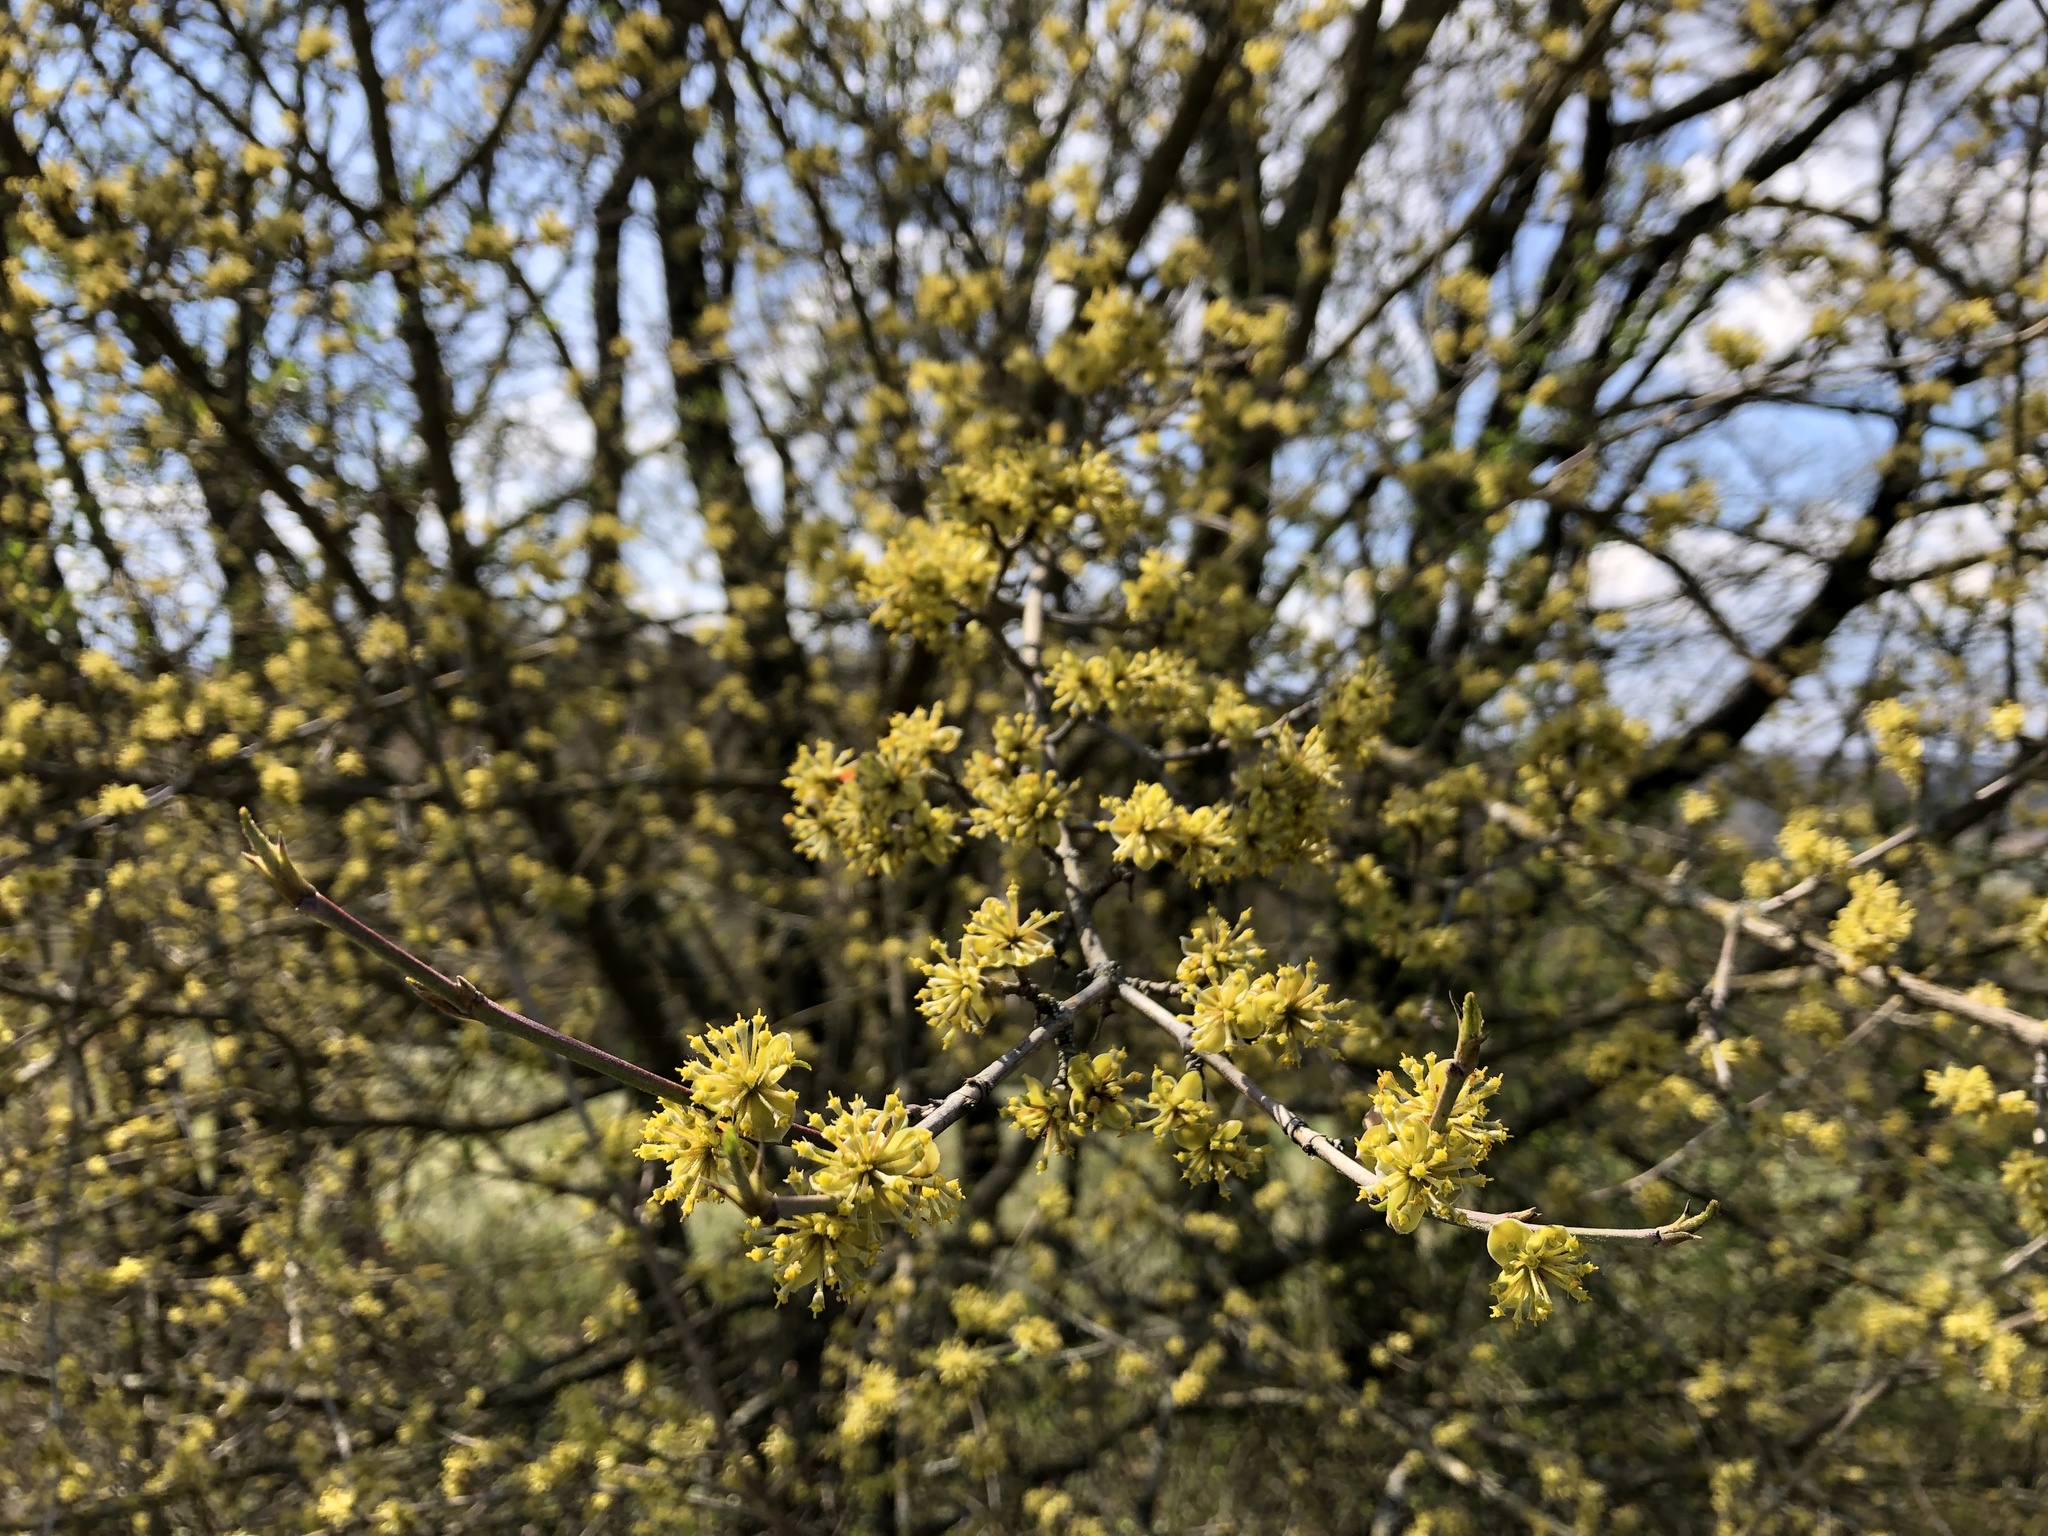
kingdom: Plantae
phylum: Tracheophyta
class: Magnoliopsida
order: Cornales
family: Cornaceae
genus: Cornus
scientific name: Cornus mas
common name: Cornelian-cherry
